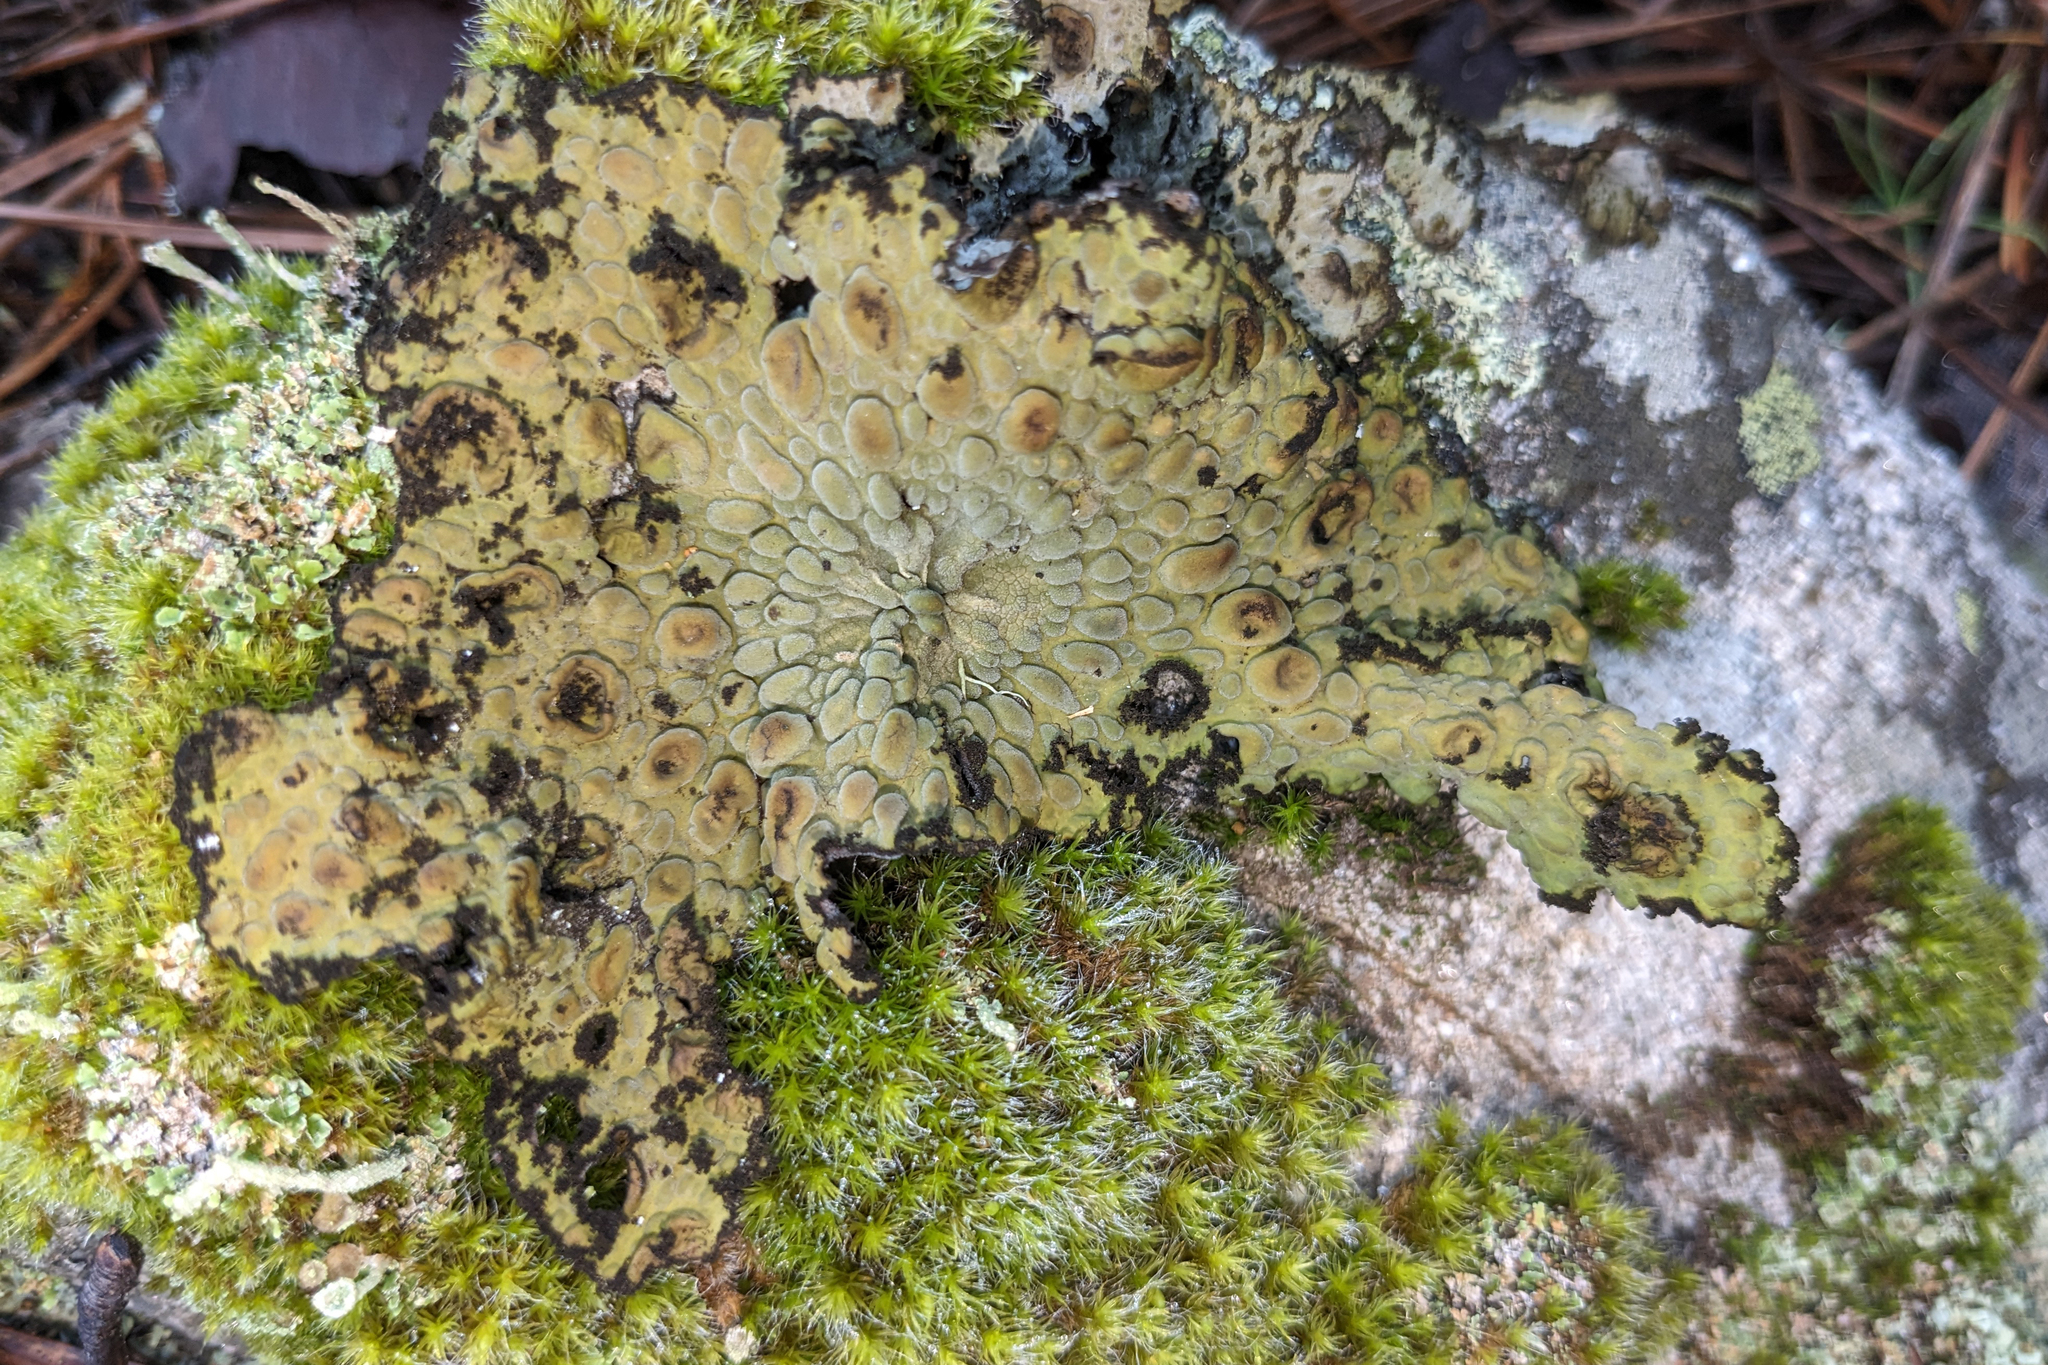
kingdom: Fungi
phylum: Ascomycota
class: Lecanoromycetes
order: Umbilicariales
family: Umbilicariaceae
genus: Lasallia
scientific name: Lasallia pustulata
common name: Blistered toadskin lichen
